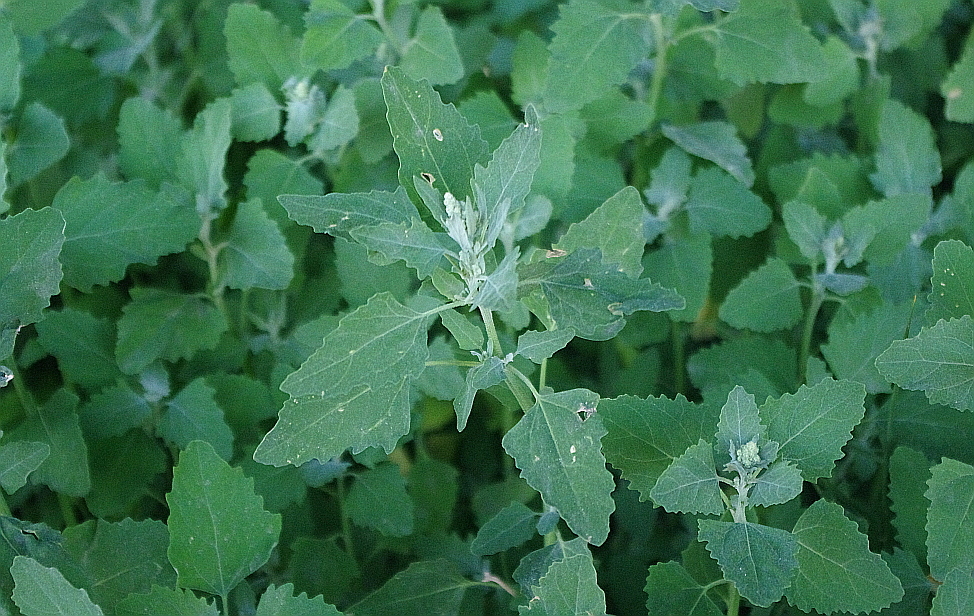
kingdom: Plantae
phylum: Tracheophyta
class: Magnoliopsida
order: Caryophyllales
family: Amaranthaceae
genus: Chenopodium
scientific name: Chenopodium album
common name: Fat-hen
